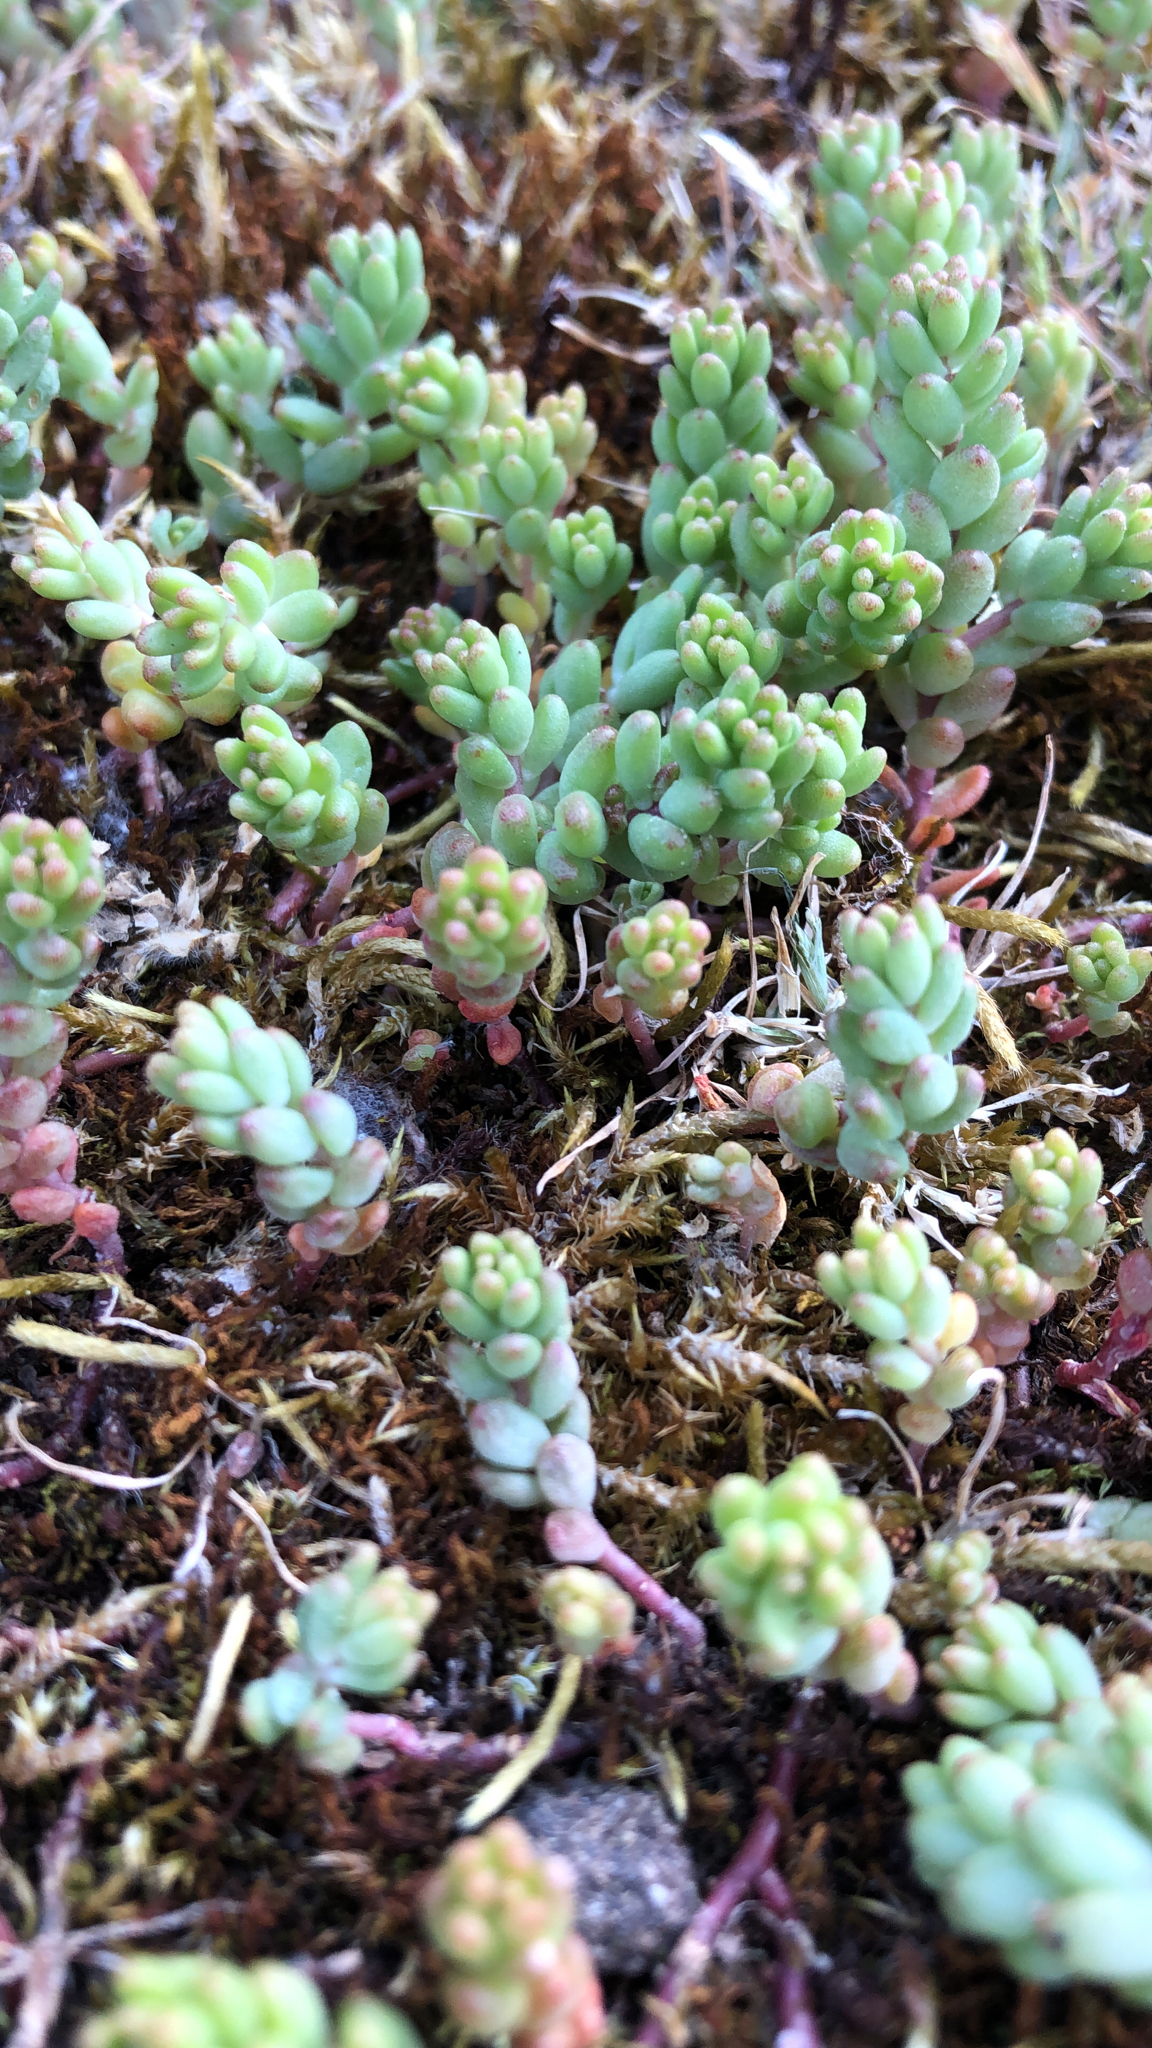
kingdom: Plantae
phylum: Tracheophyta
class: Magnoliopsida
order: Saxifragales
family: Crassulaceae
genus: Sedum
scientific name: Sedum album
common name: White stonecrop
